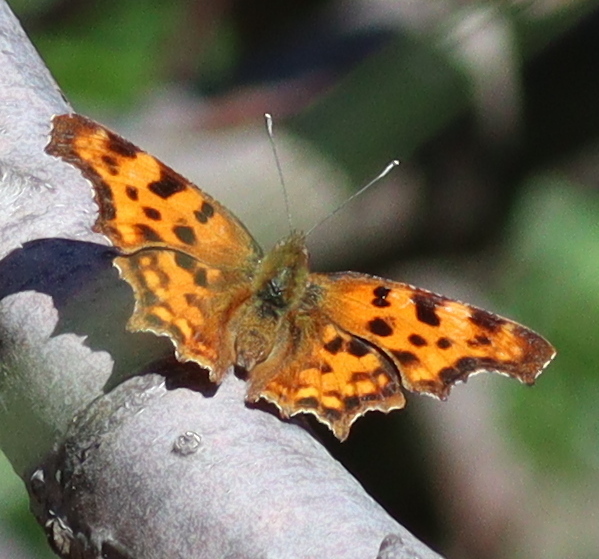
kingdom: Animalia
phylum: Arthropoda
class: Insecta
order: Lepidoptera
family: Nymphalidae
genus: Polygonia
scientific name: Polygonia c-album
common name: Comma
